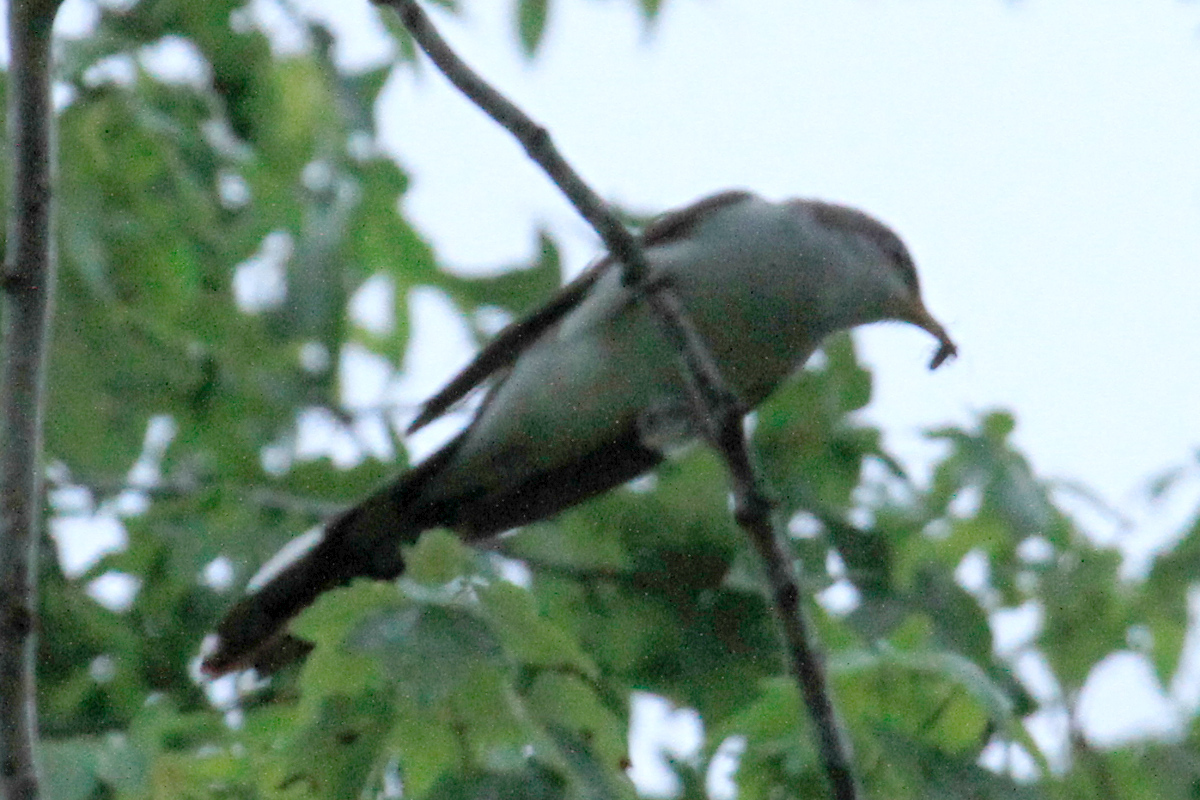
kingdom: Animalia
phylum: Chordata
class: Aves
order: Cuculiformes
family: Cuculidae
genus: Coccyzus
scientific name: Coccyzus americanus
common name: Yellow-billed cuckoo
